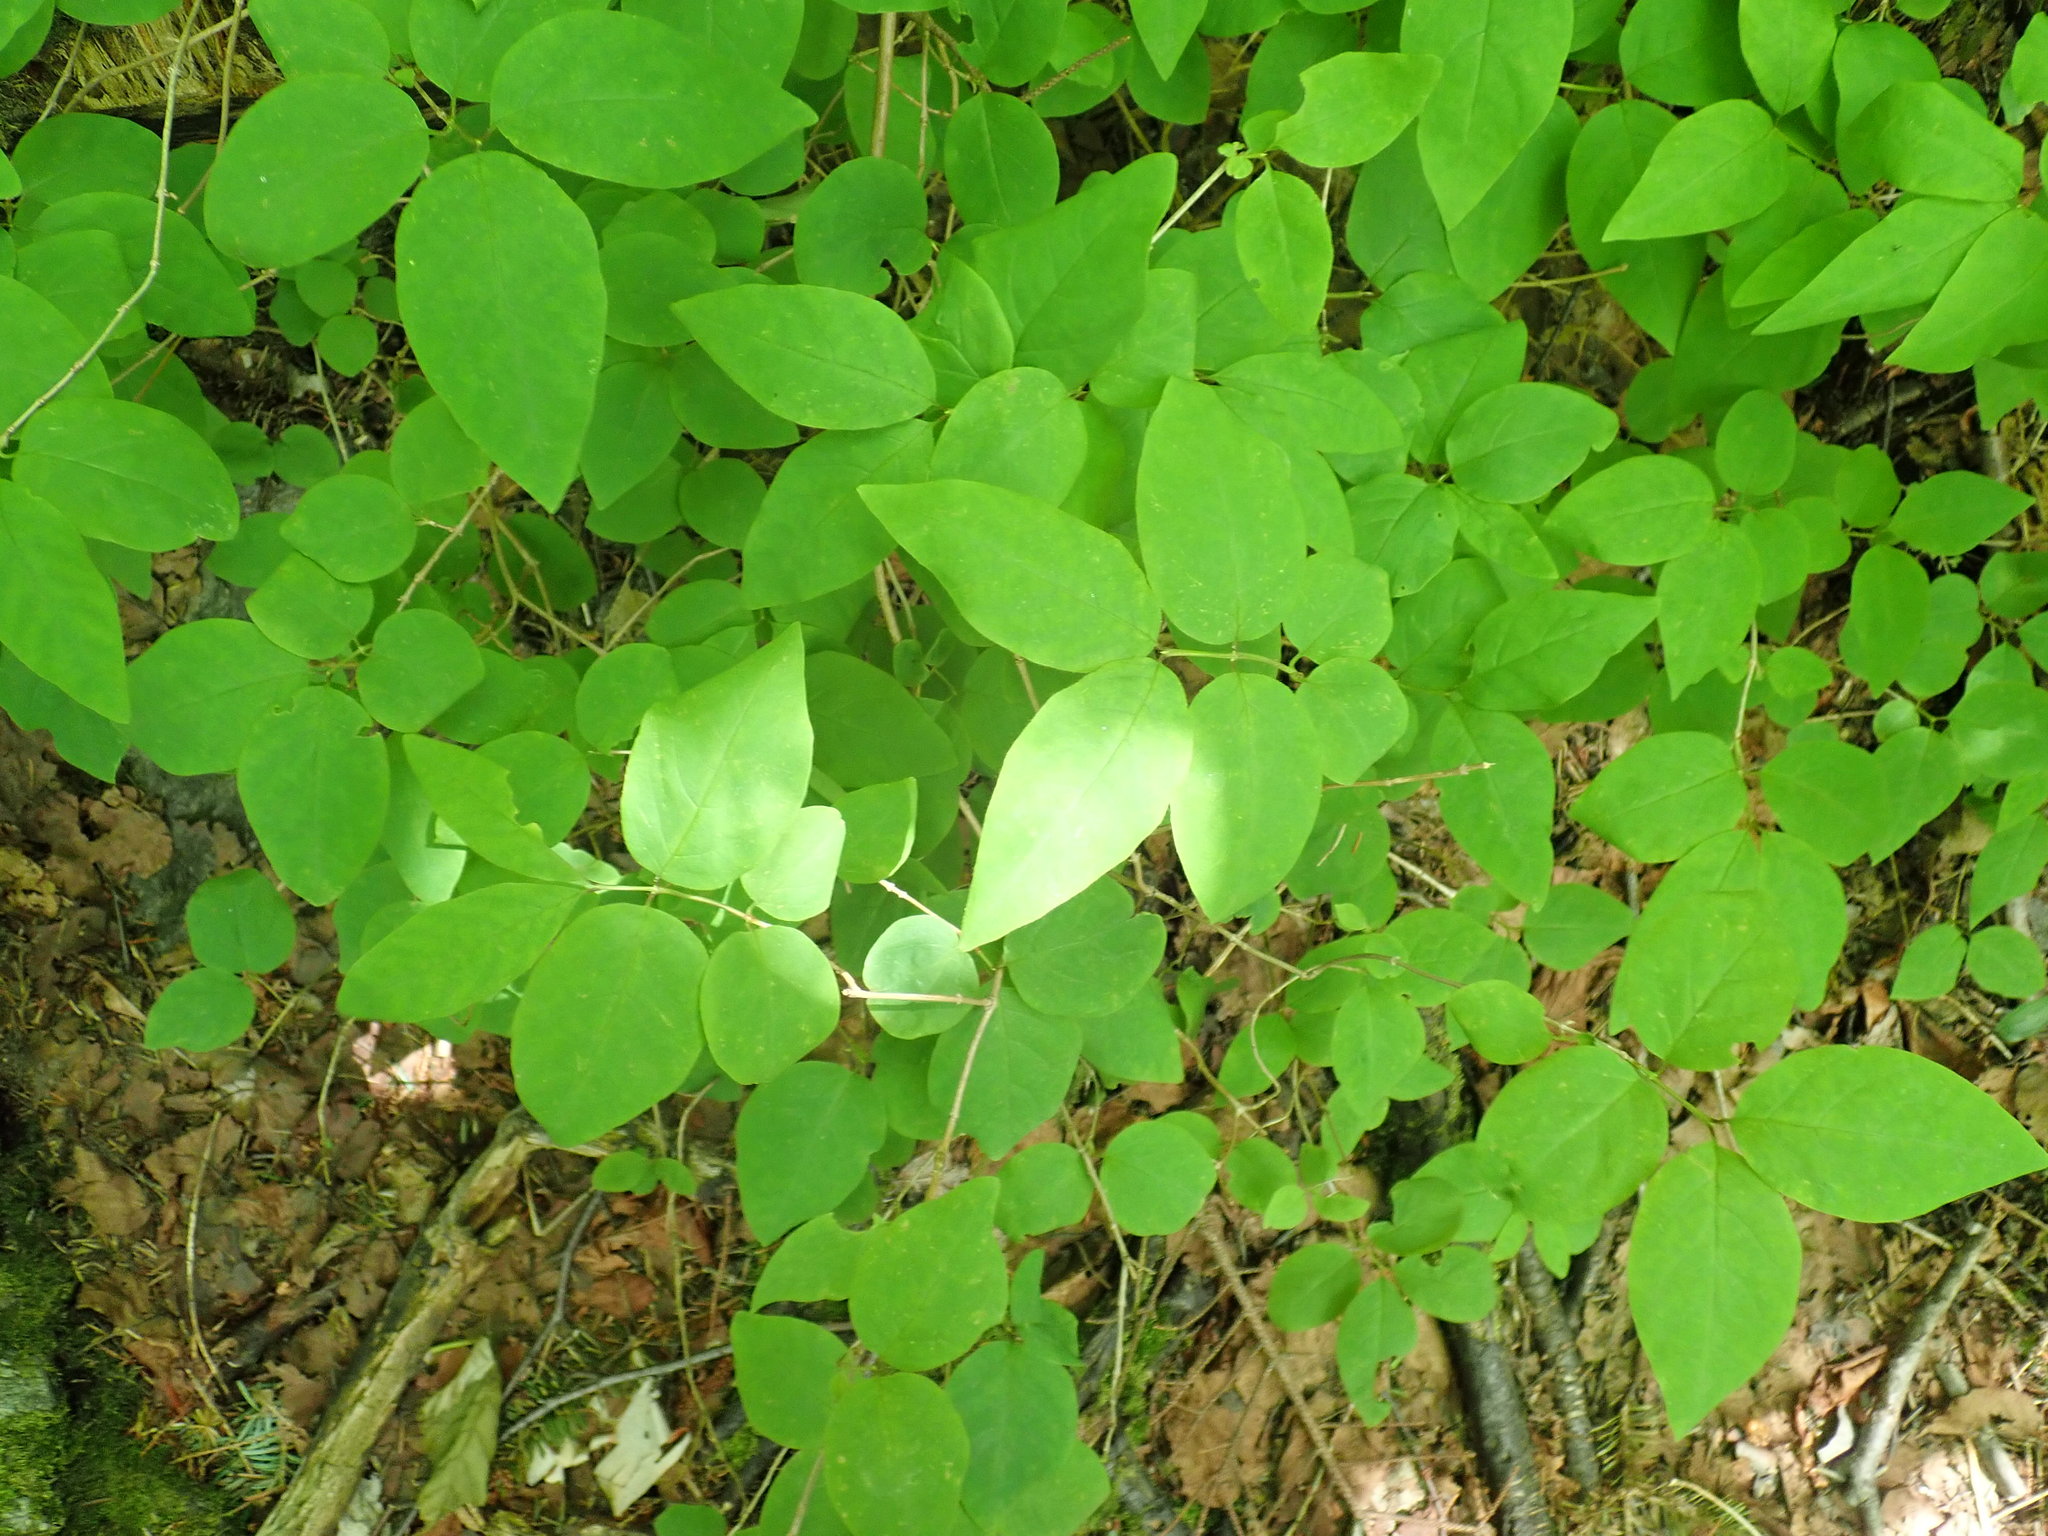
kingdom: Plantae
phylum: Tracheophyta
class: Magnoliopsida
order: Dipsacales
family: Caprifoliaceae
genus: Lonicera
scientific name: Lonicera canadensis
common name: American fly-honeysuckle
